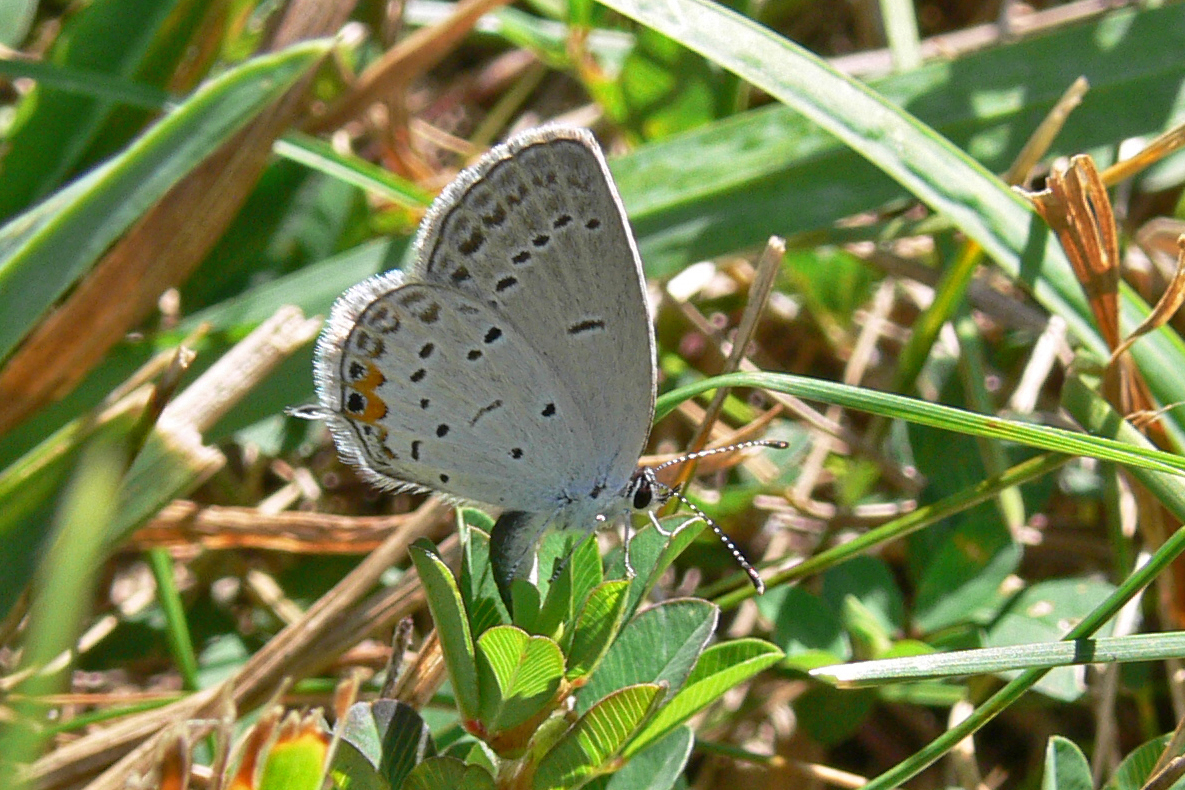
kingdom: Animalia
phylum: Arthropoda
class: Insecta
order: Lepidoptera
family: Lycaenidae
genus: Elkalyce
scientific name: Elkalyce comyntas
